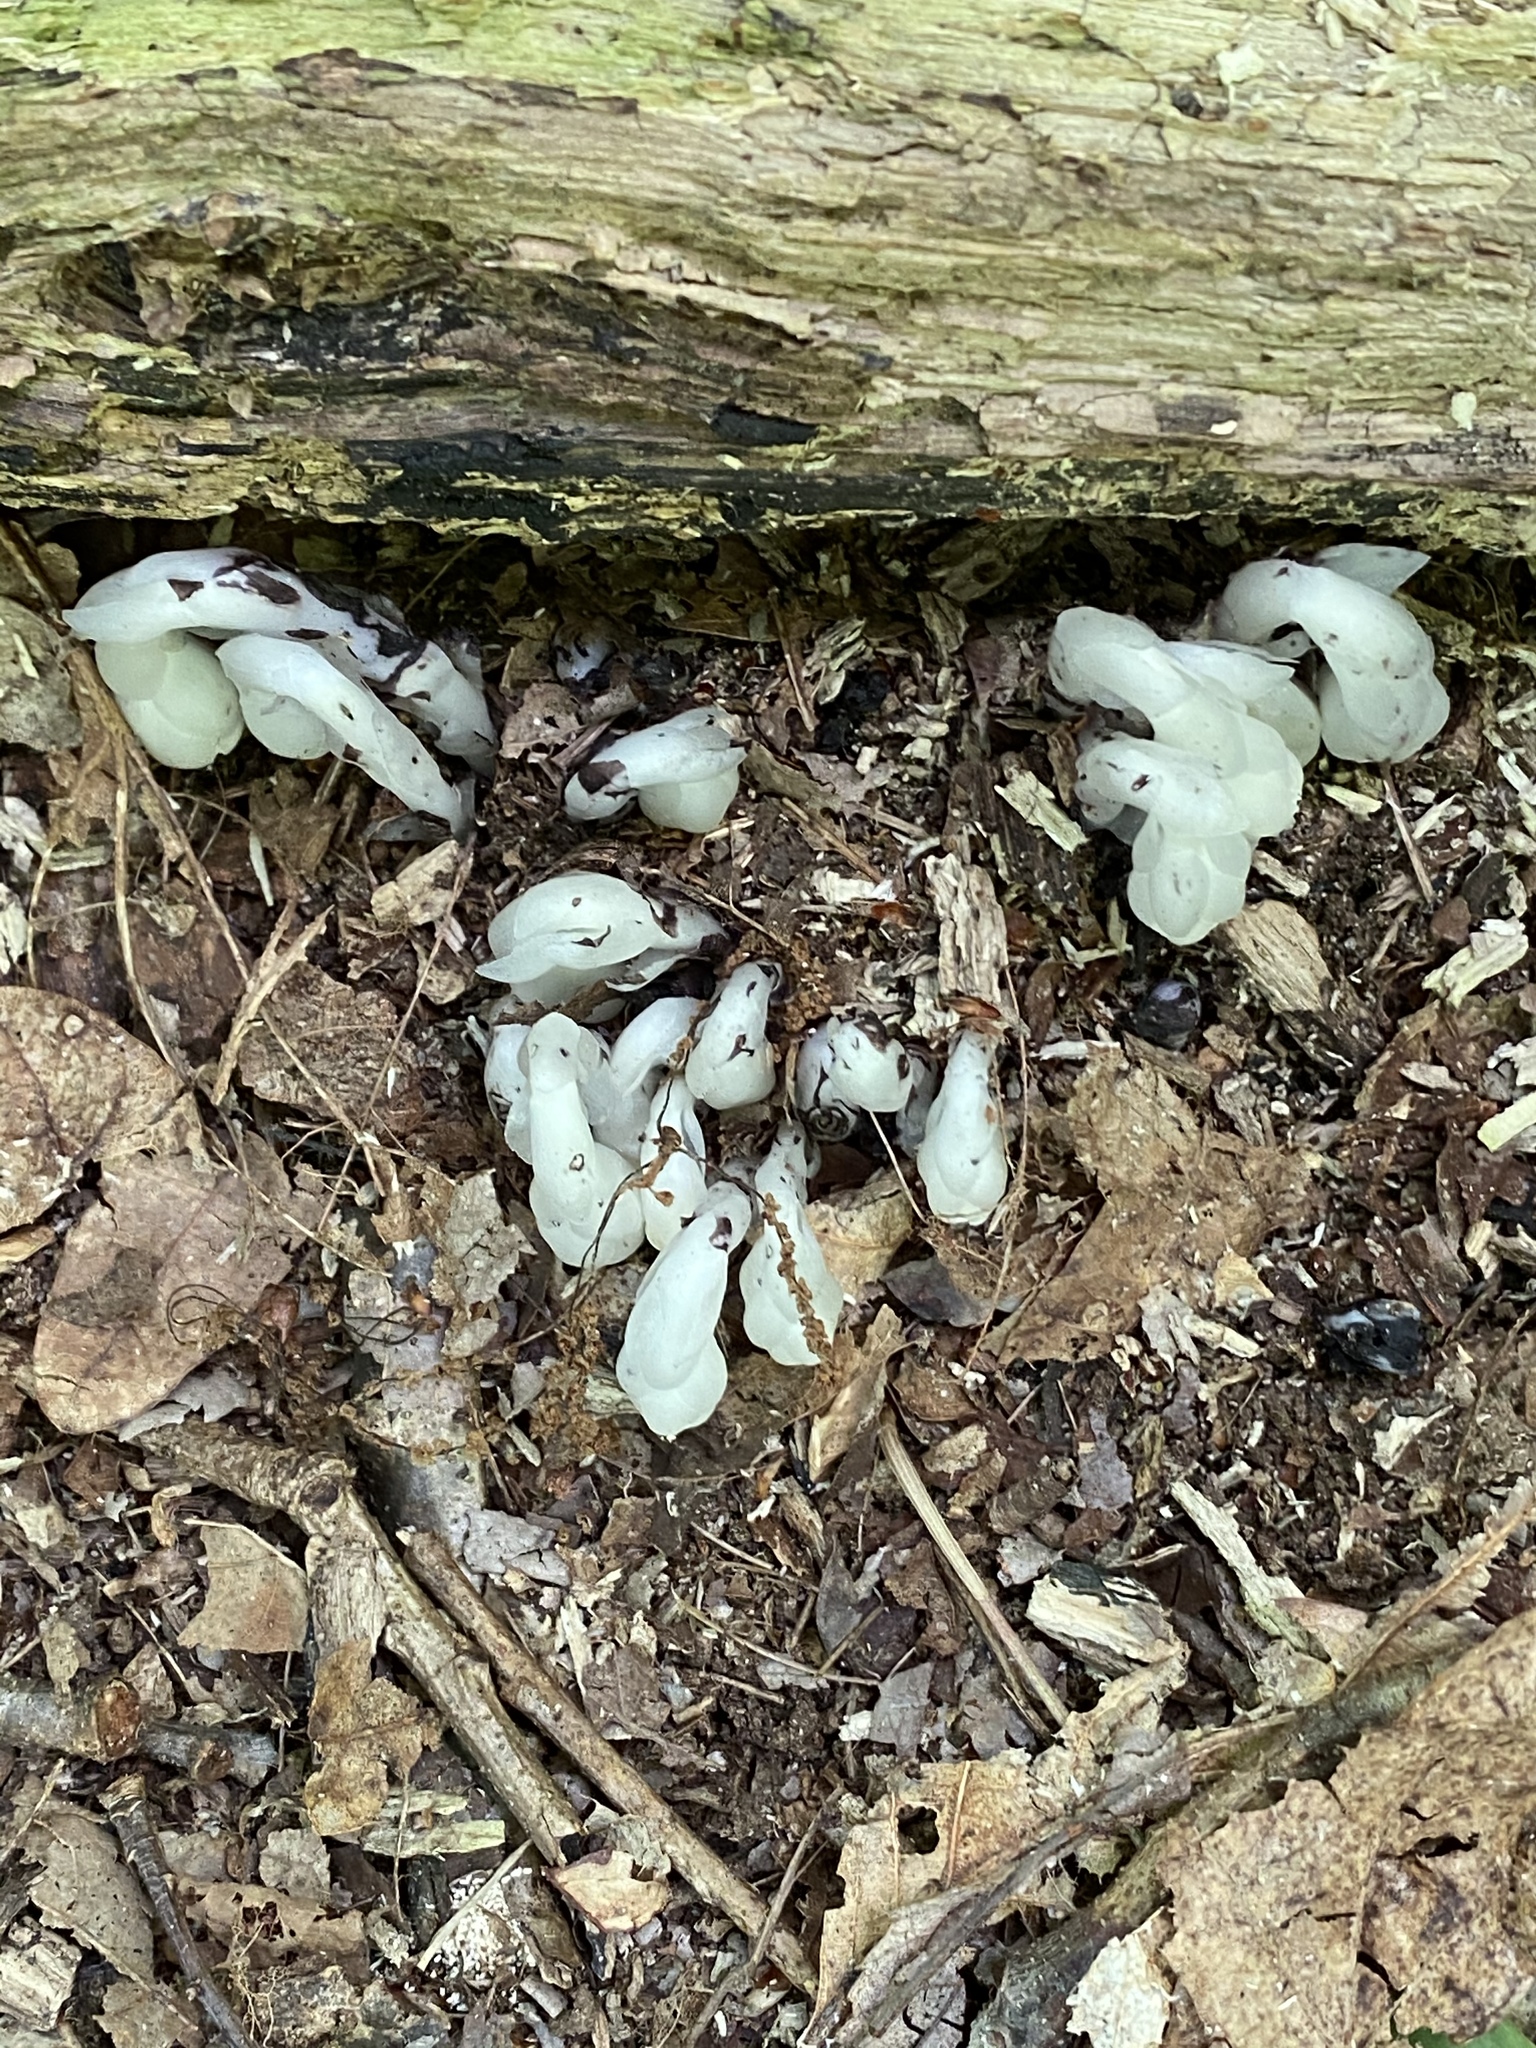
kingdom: Plantae
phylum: Tracheophyta
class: Magnoliopsida
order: Ericales
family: Ericaceae
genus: Monotropa
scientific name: Monotropa uniflora
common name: Convulsion root
